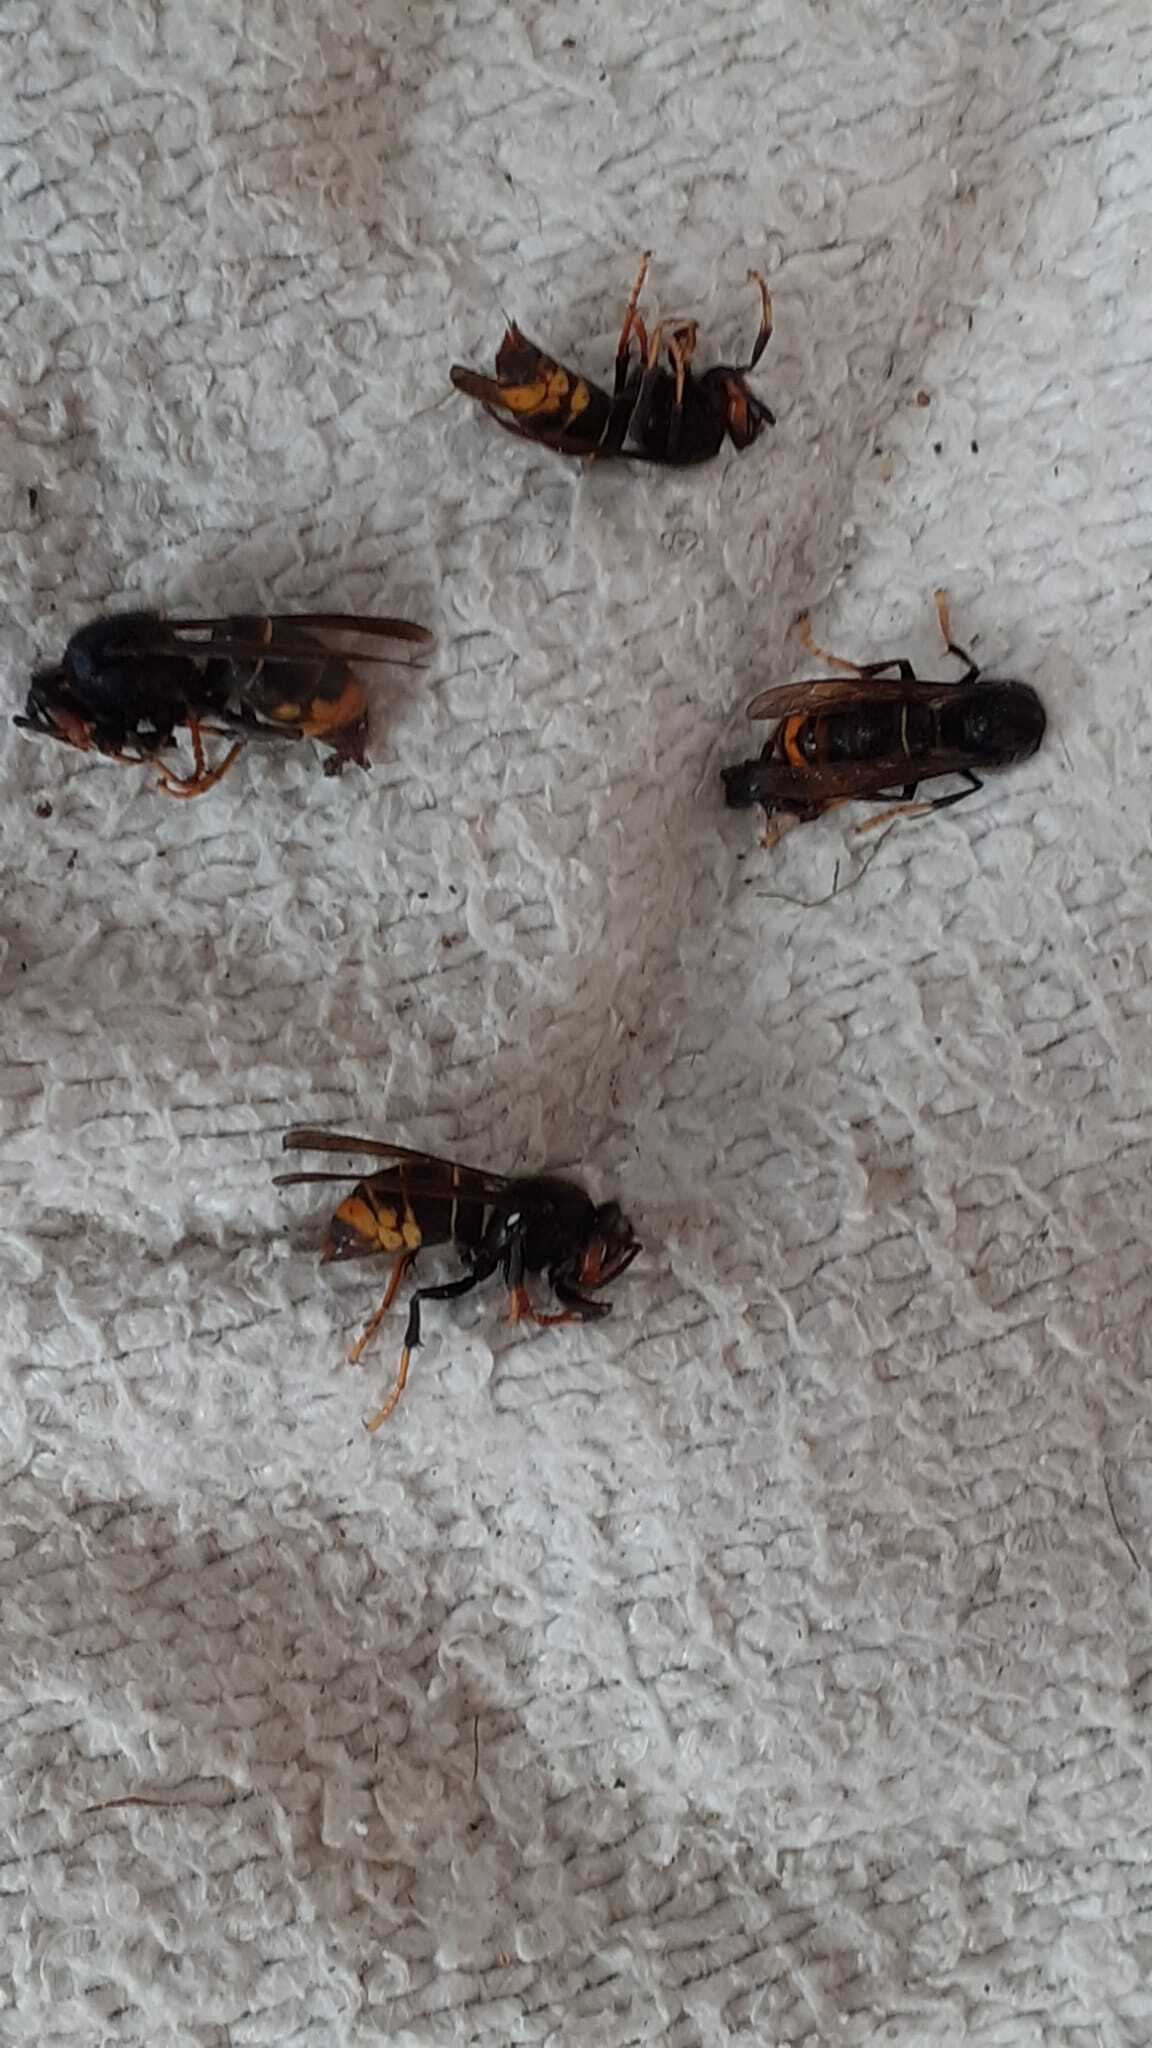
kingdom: Animalia
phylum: Arthropoda
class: Insecta
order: Hymenoptera
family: Vespidae
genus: Vespa
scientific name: Vespa velutina
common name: Asian hornet
